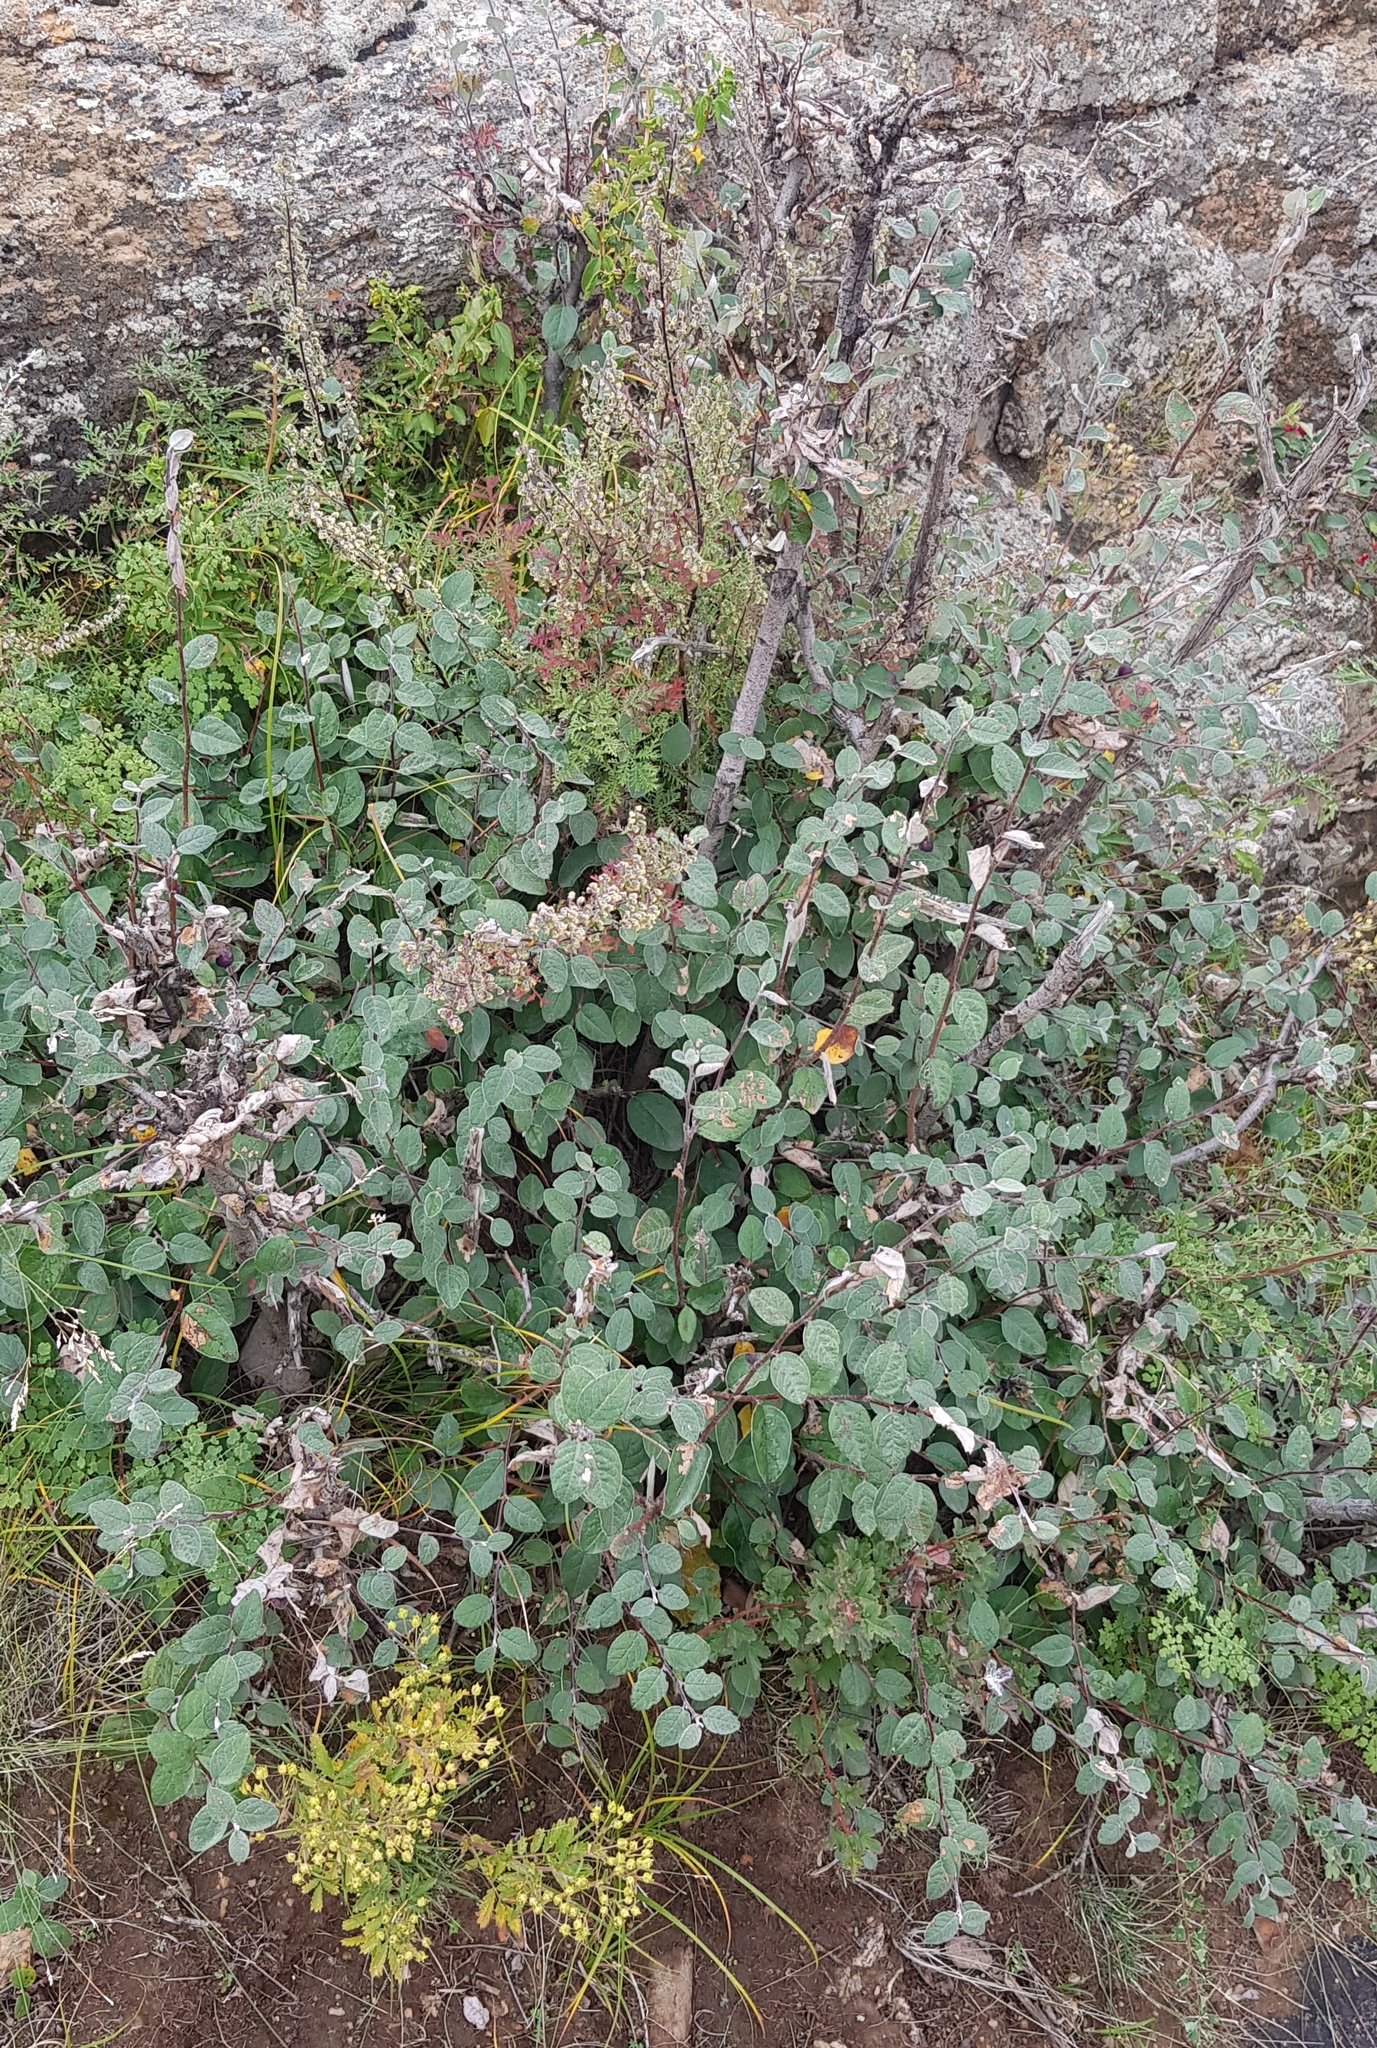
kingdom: Plantae
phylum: Tracheophyta
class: Magnoliopsida
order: Rosales
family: Rosaceae
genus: Cotoneaster
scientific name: Cotoneaster melanocarpus
